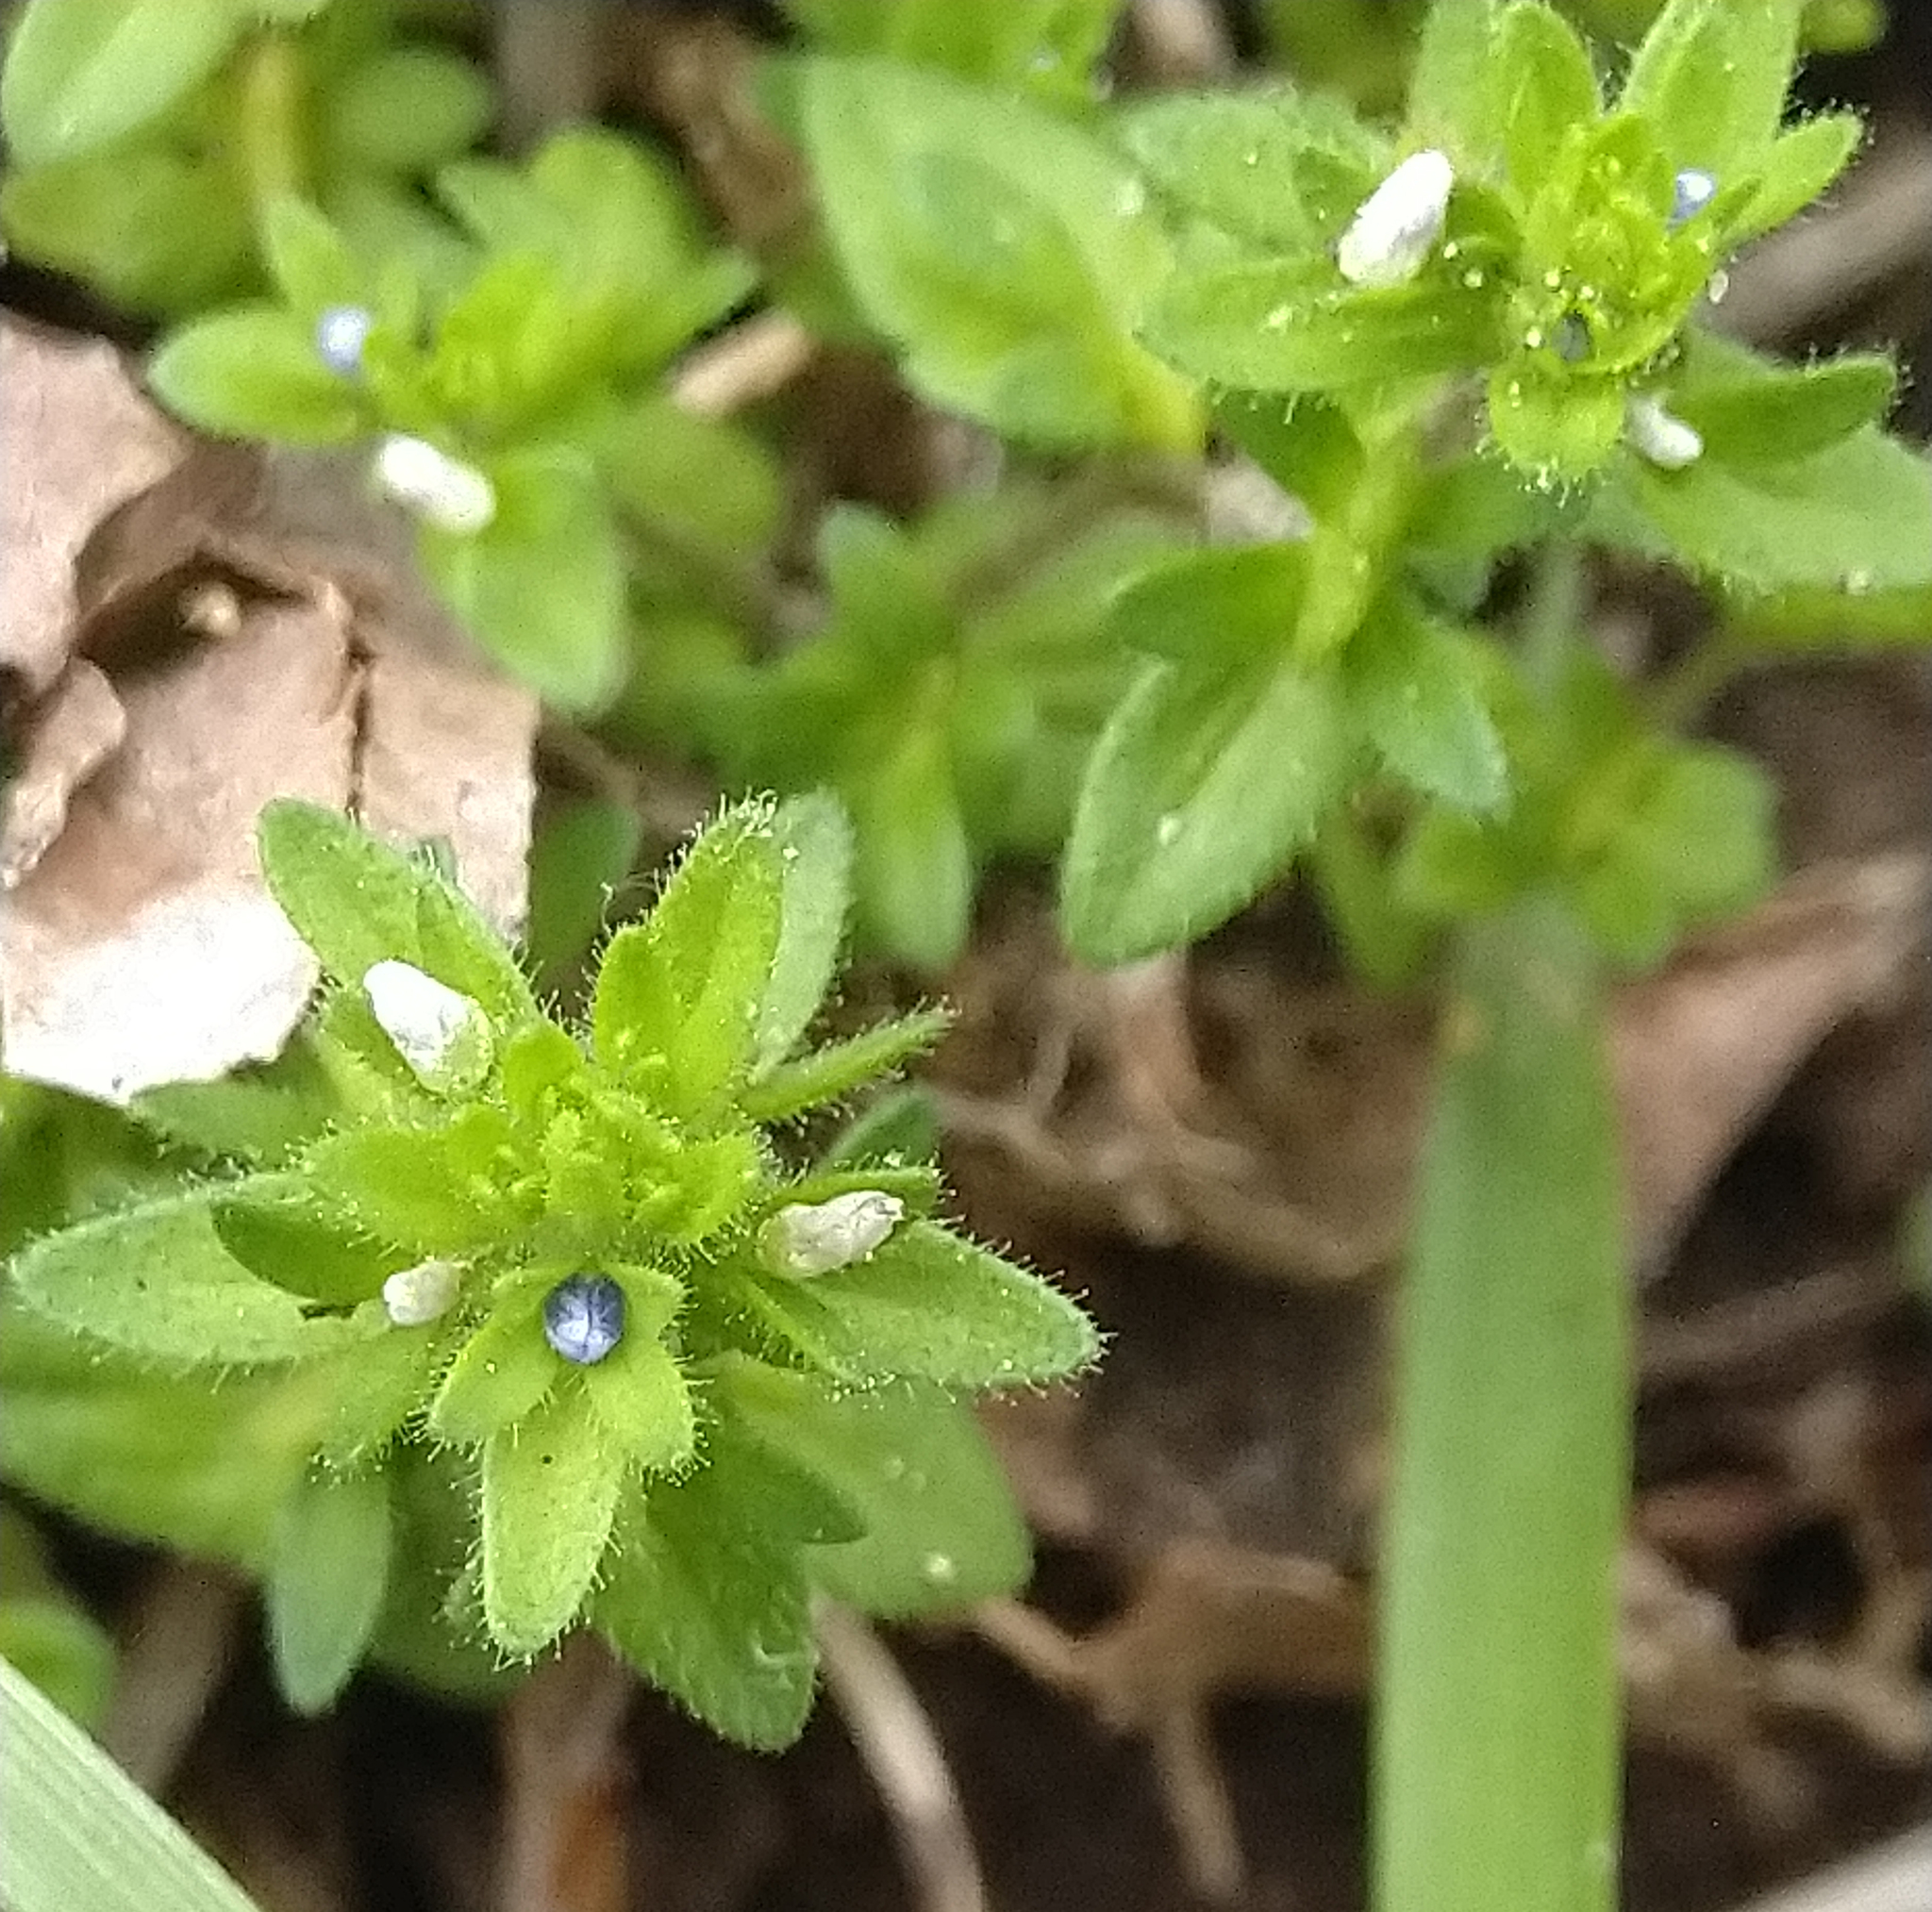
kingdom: Plantae
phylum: Tracheophyta
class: Magnoliopsida
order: Lamiales
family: Plantaginaceae
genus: Veronica
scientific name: Veronica arvensis
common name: Corn speedwell
